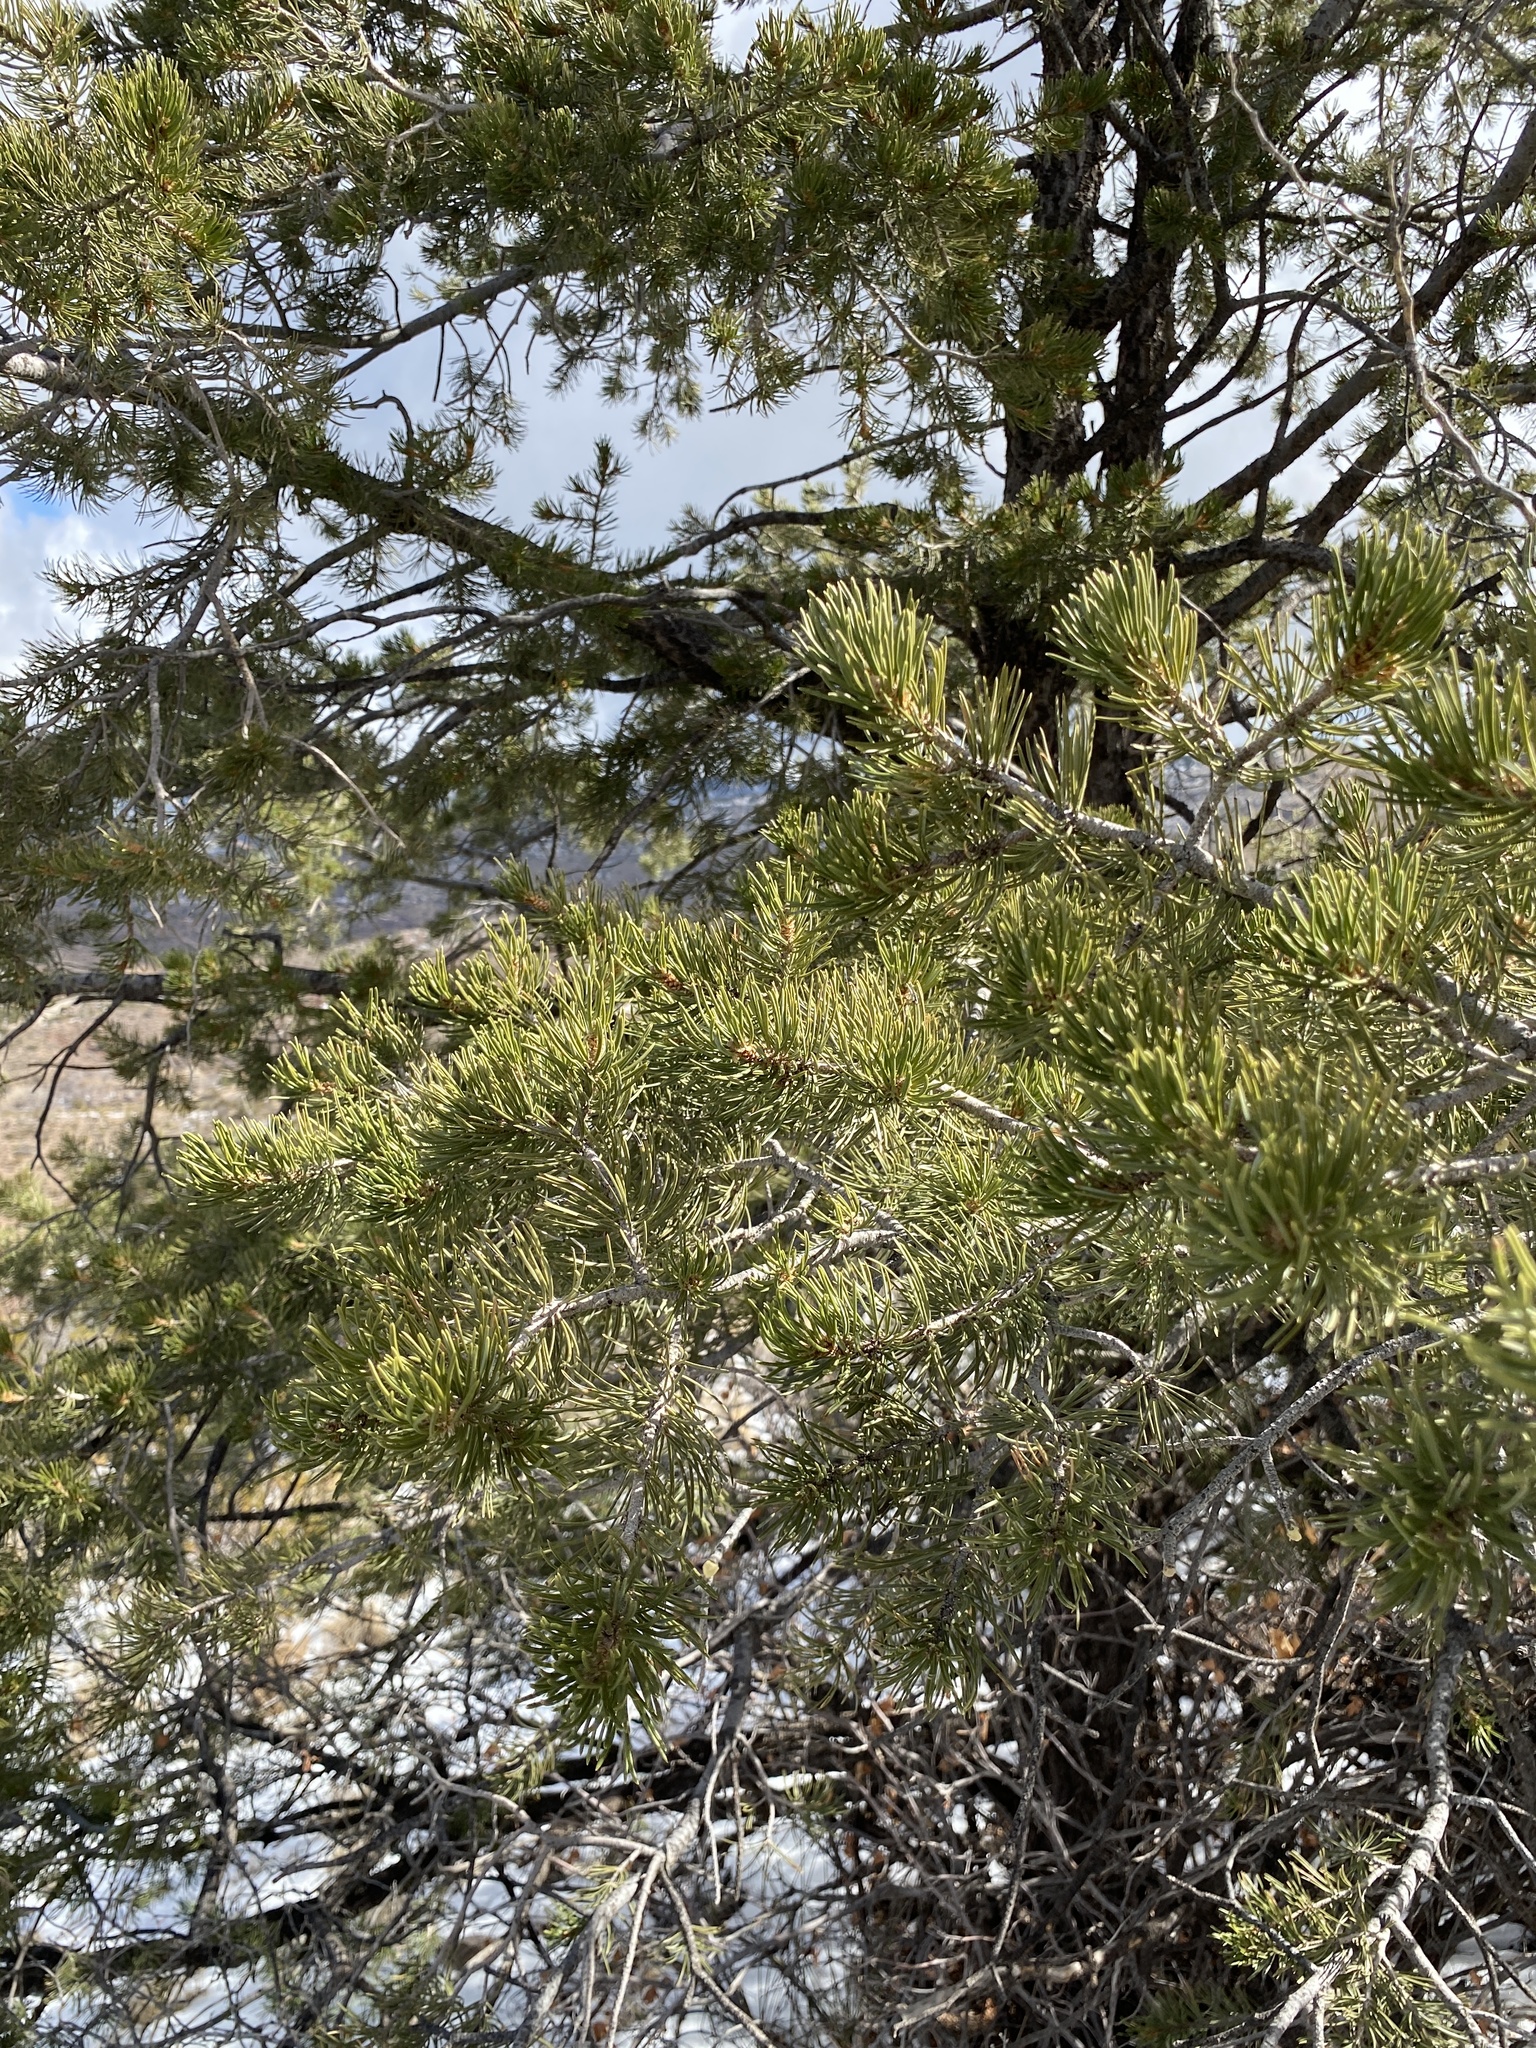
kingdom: Plantae
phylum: Tracheophyta
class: Pinopsida
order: Pinales
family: Pinaceae
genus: Pinus
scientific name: Pinus edulis
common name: Colorado pinyon
